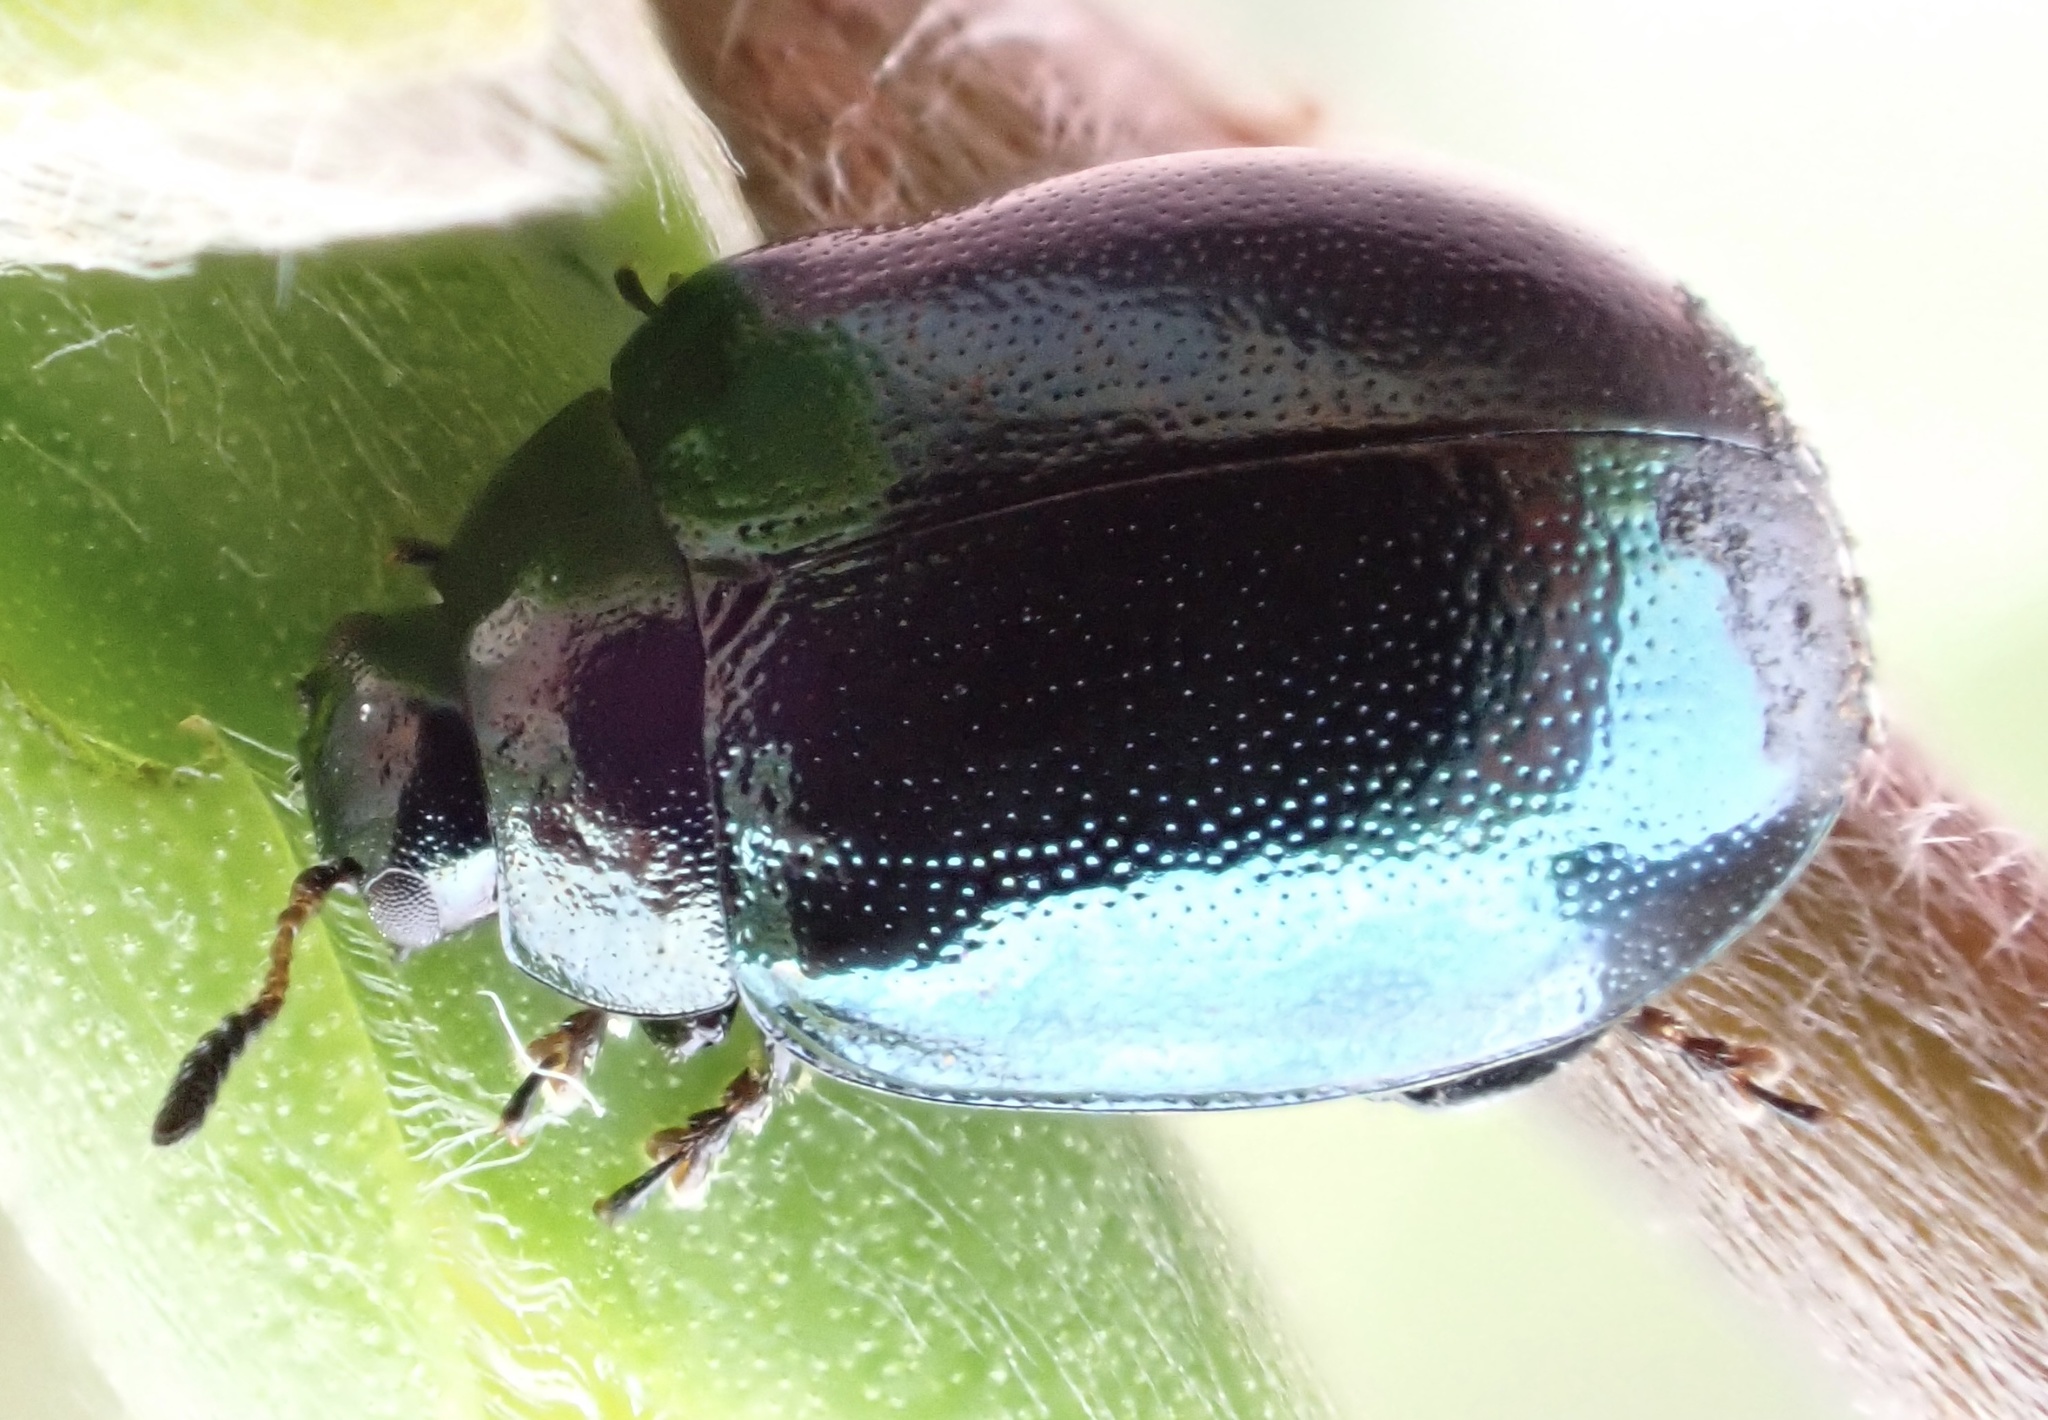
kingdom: Animalia
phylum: Arthropoda
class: Insecta
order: Coleoptera
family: Chrysomelidae
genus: Plagiodera
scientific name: Plagiodera versicolora
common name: Imported willow leaf beetle
